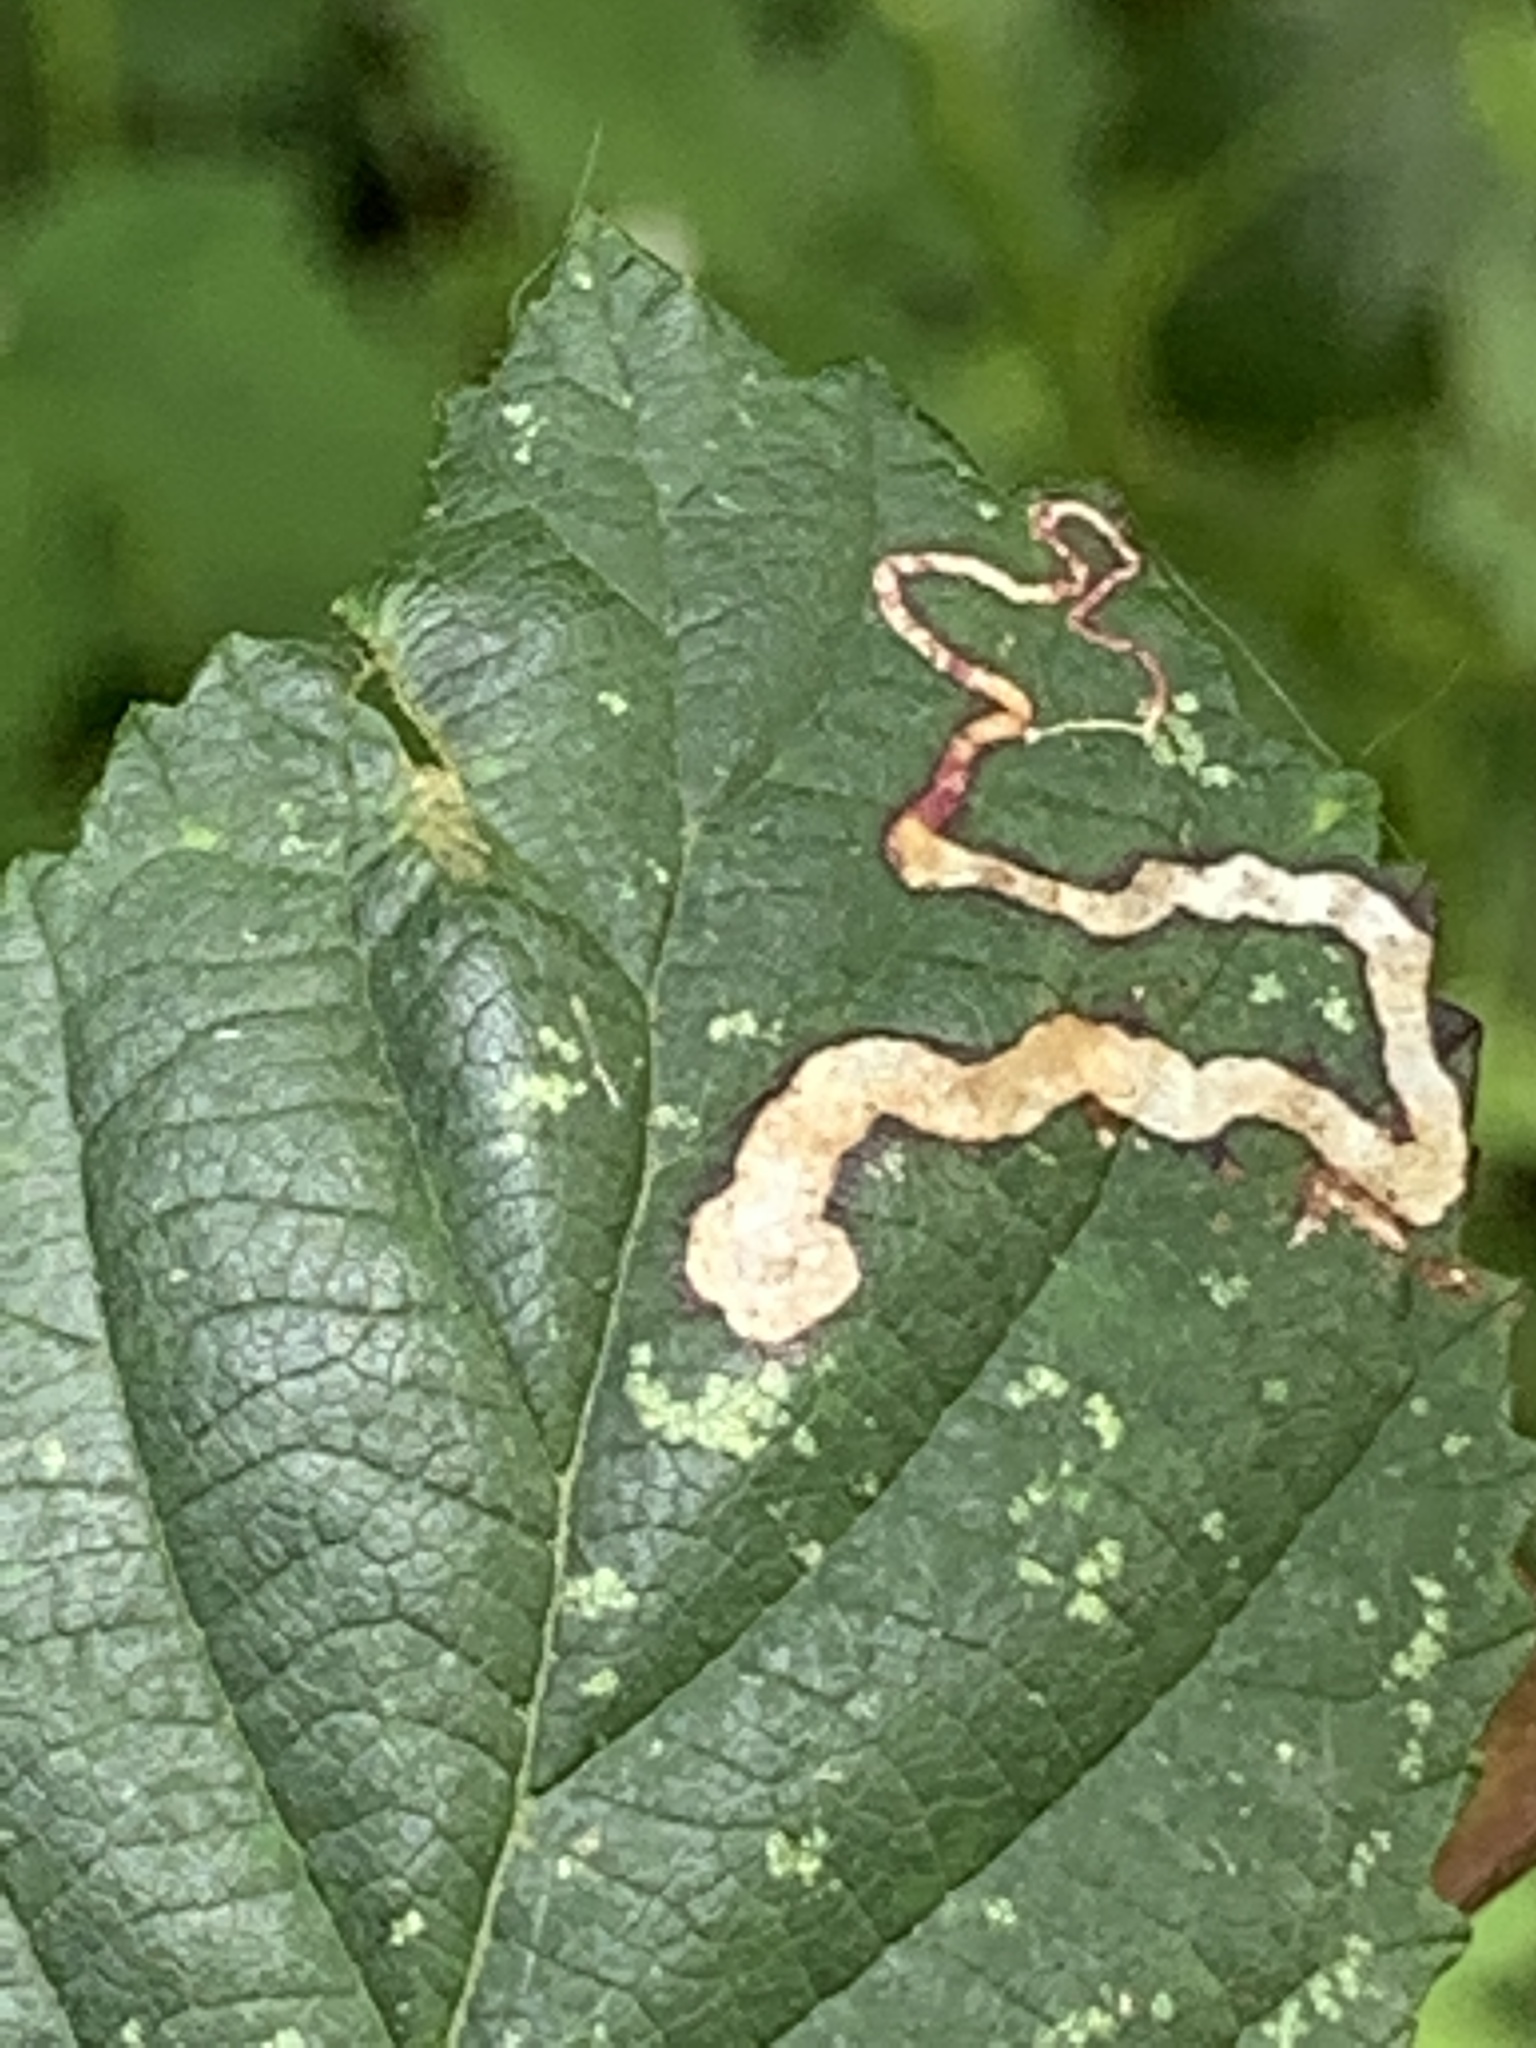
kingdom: Animalia
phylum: Arthropoda
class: Insecta
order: Lepidoptera
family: Nepticulidae
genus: Stigmella
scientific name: Stigmella aurella
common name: Golden pigmy
